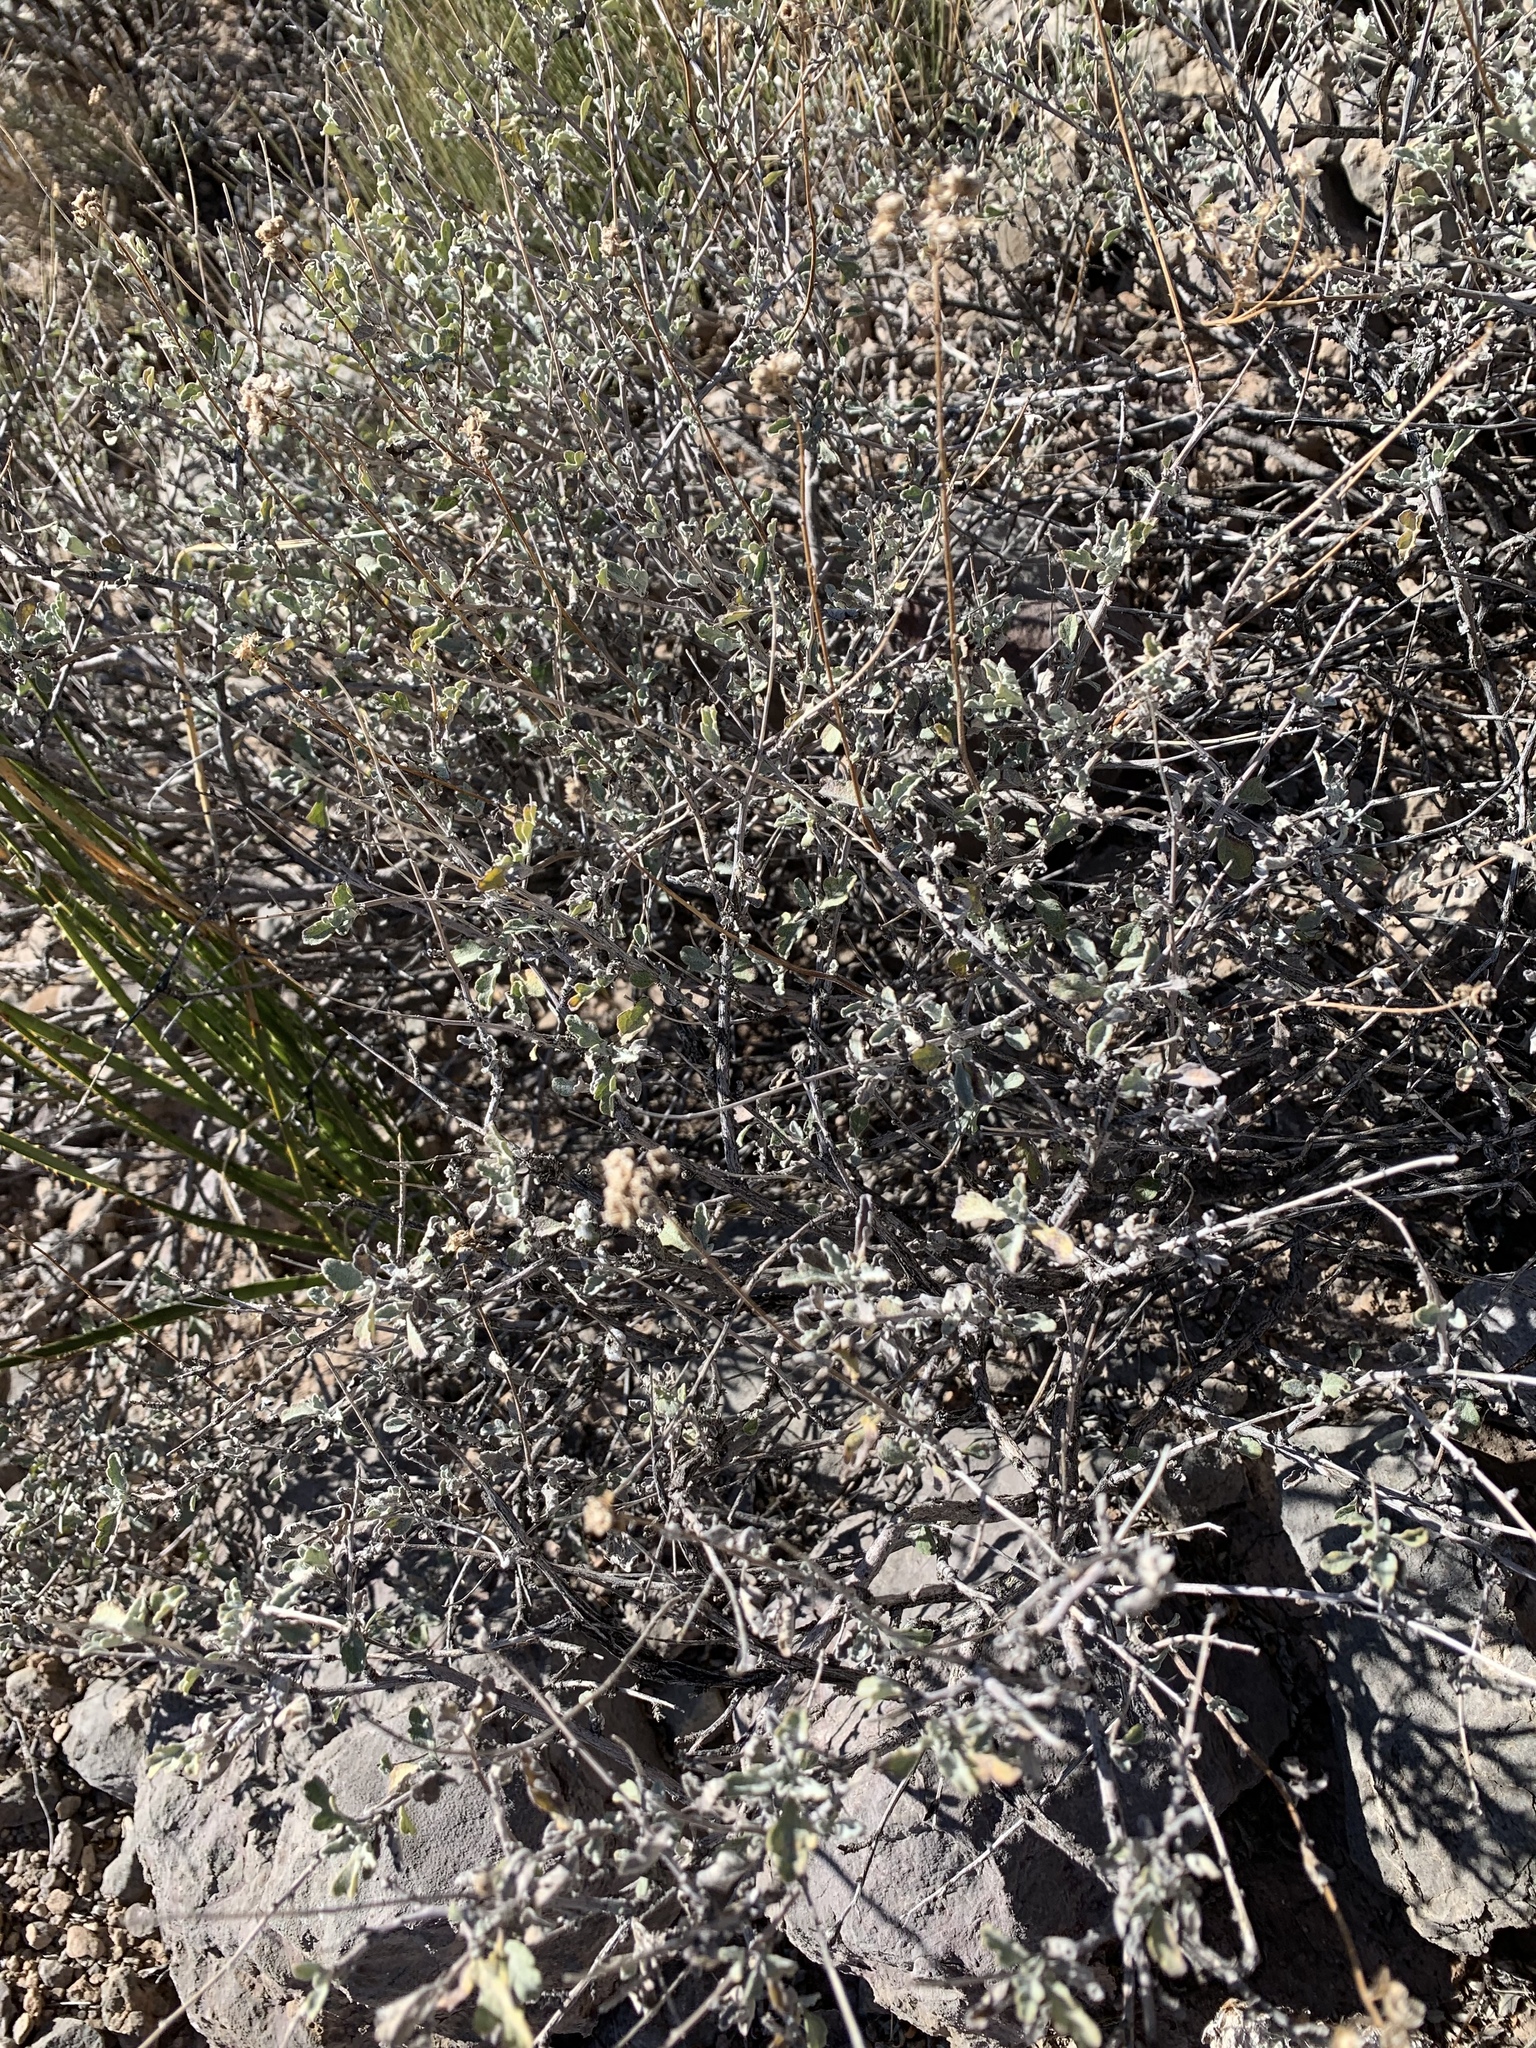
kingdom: Plantae
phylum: Tracheophyta
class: Magnoliopsida
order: Asterales
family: Asteraceae
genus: Parthenium
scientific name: Parthenium incanum
